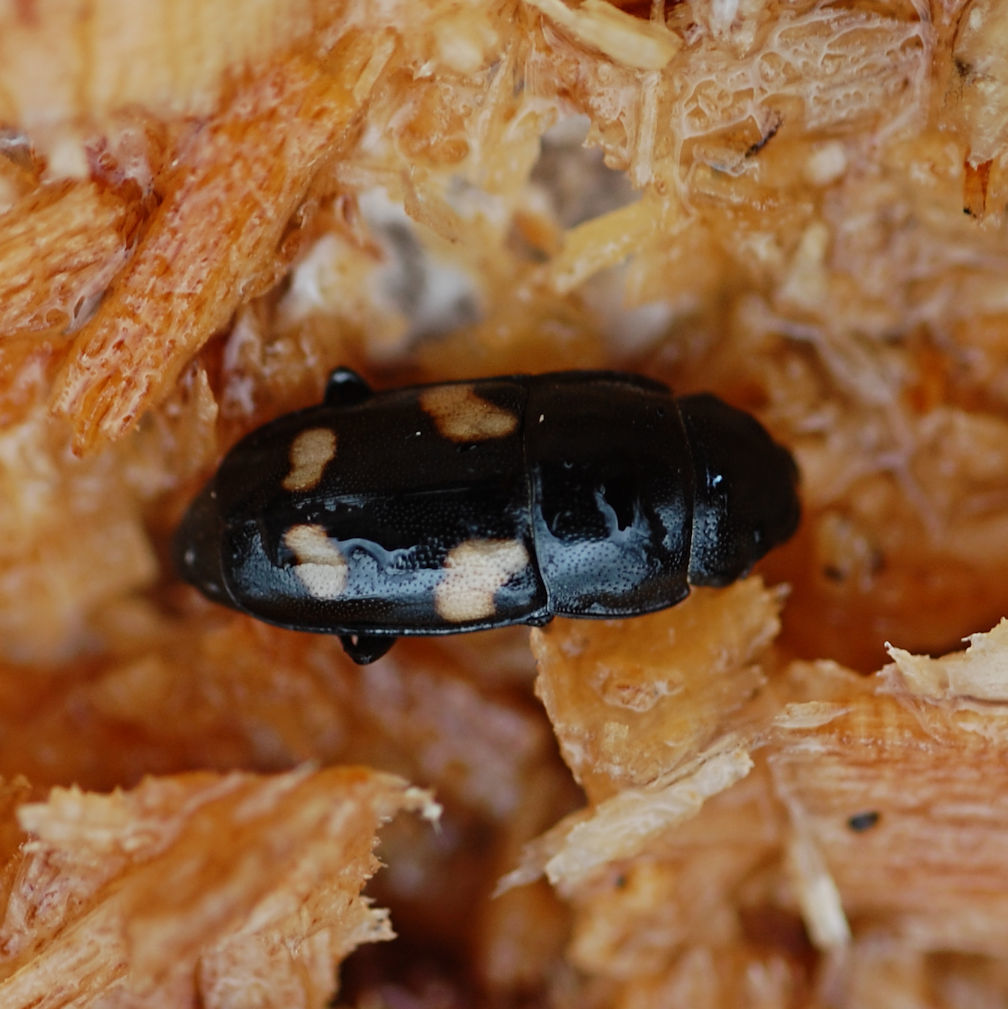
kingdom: Animalia
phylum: Arthropoda
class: Insecta
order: Coleoptera
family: Nitidulidae
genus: Glischrochilus
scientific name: Glischrochilus quadrisignatus
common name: Picnic beetle
